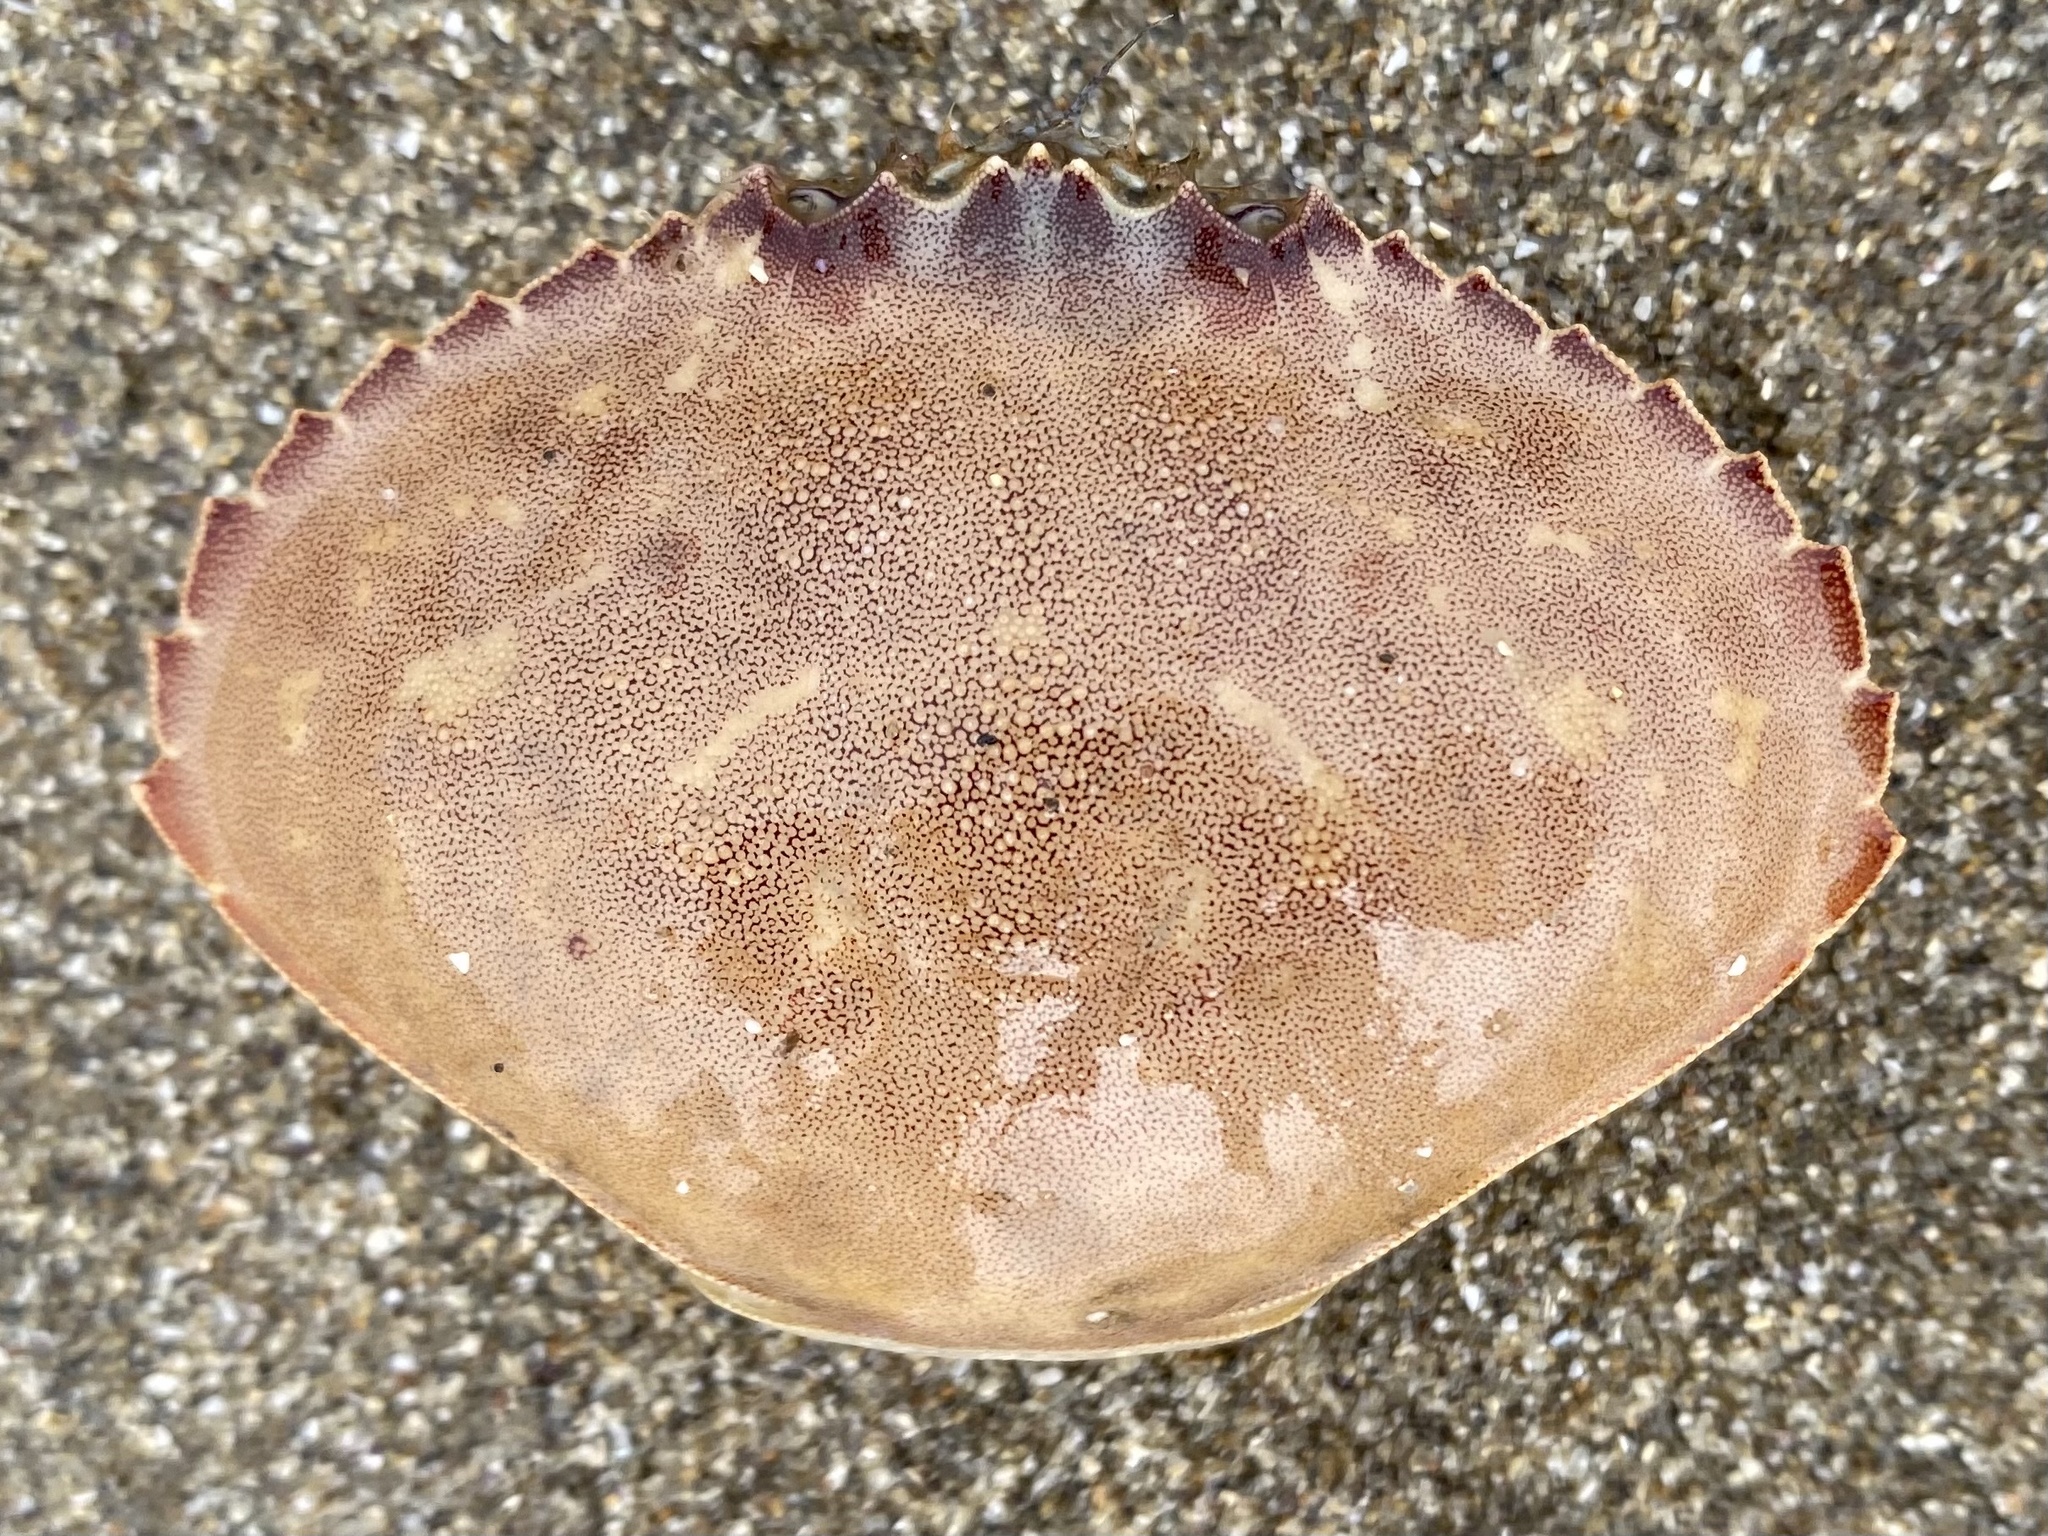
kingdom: Animalia
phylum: Arthropoda
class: Malacostraca
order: Decapoda
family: Cancridae
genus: Metacarcinus
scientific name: Metacarcinus gracilis
